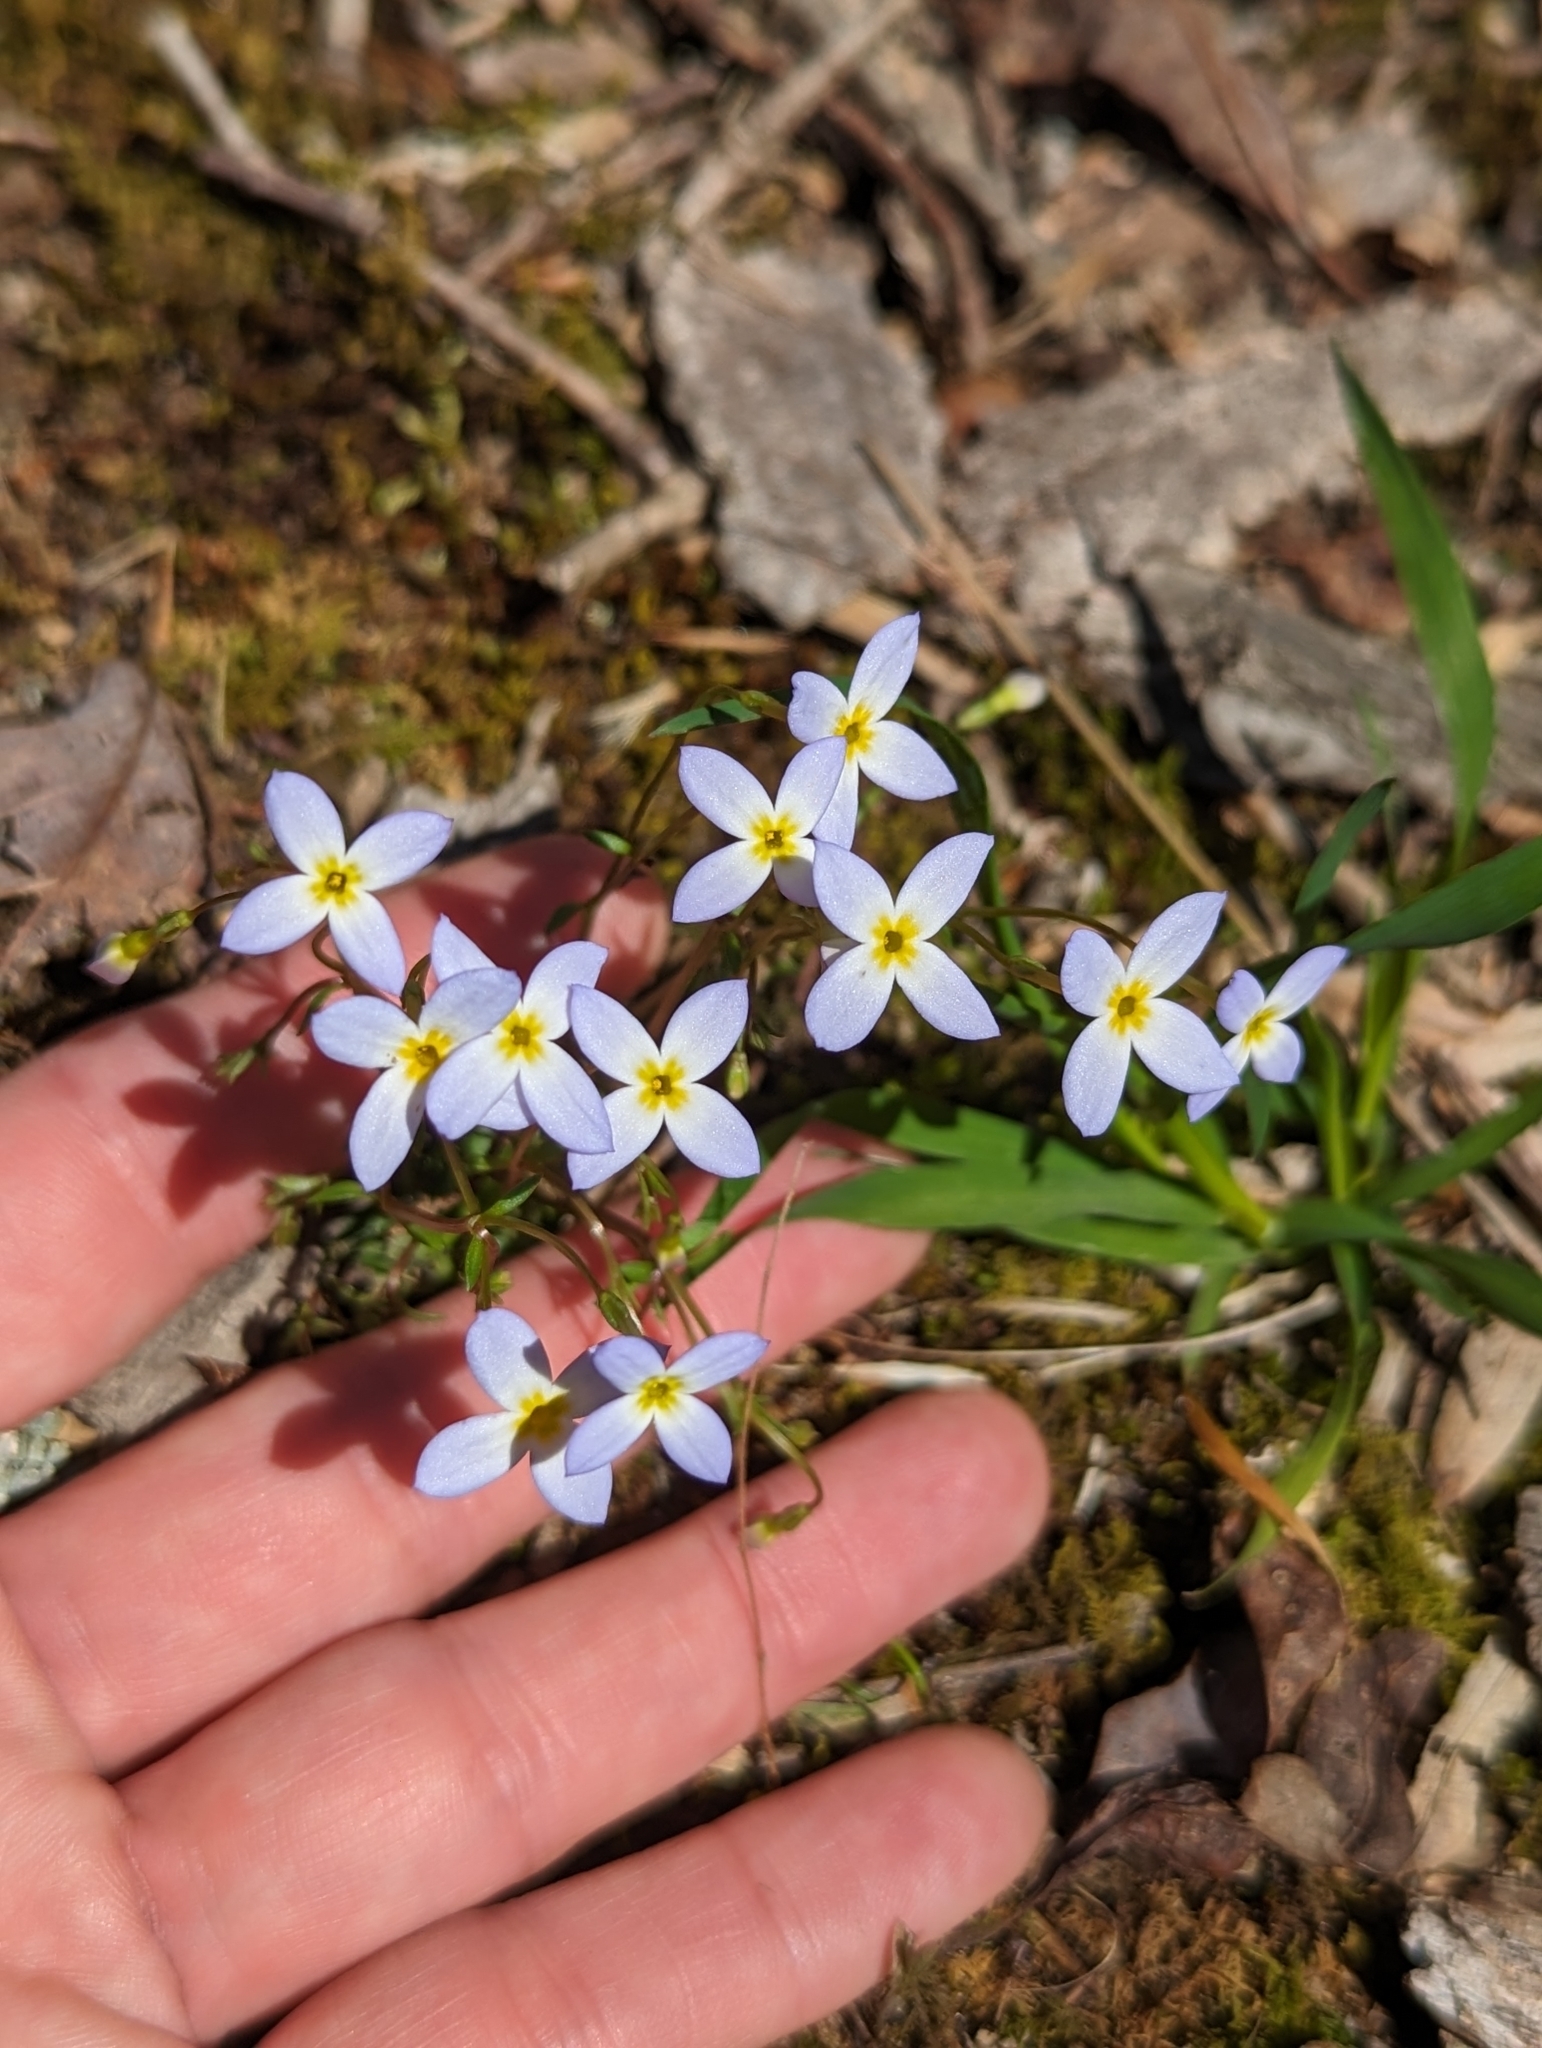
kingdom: Plantae
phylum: Tracheophyta
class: Magnoliopsida
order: Gentianales
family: Rubiaceae
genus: Houstonia
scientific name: Houstonia caerulea
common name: Bluets
